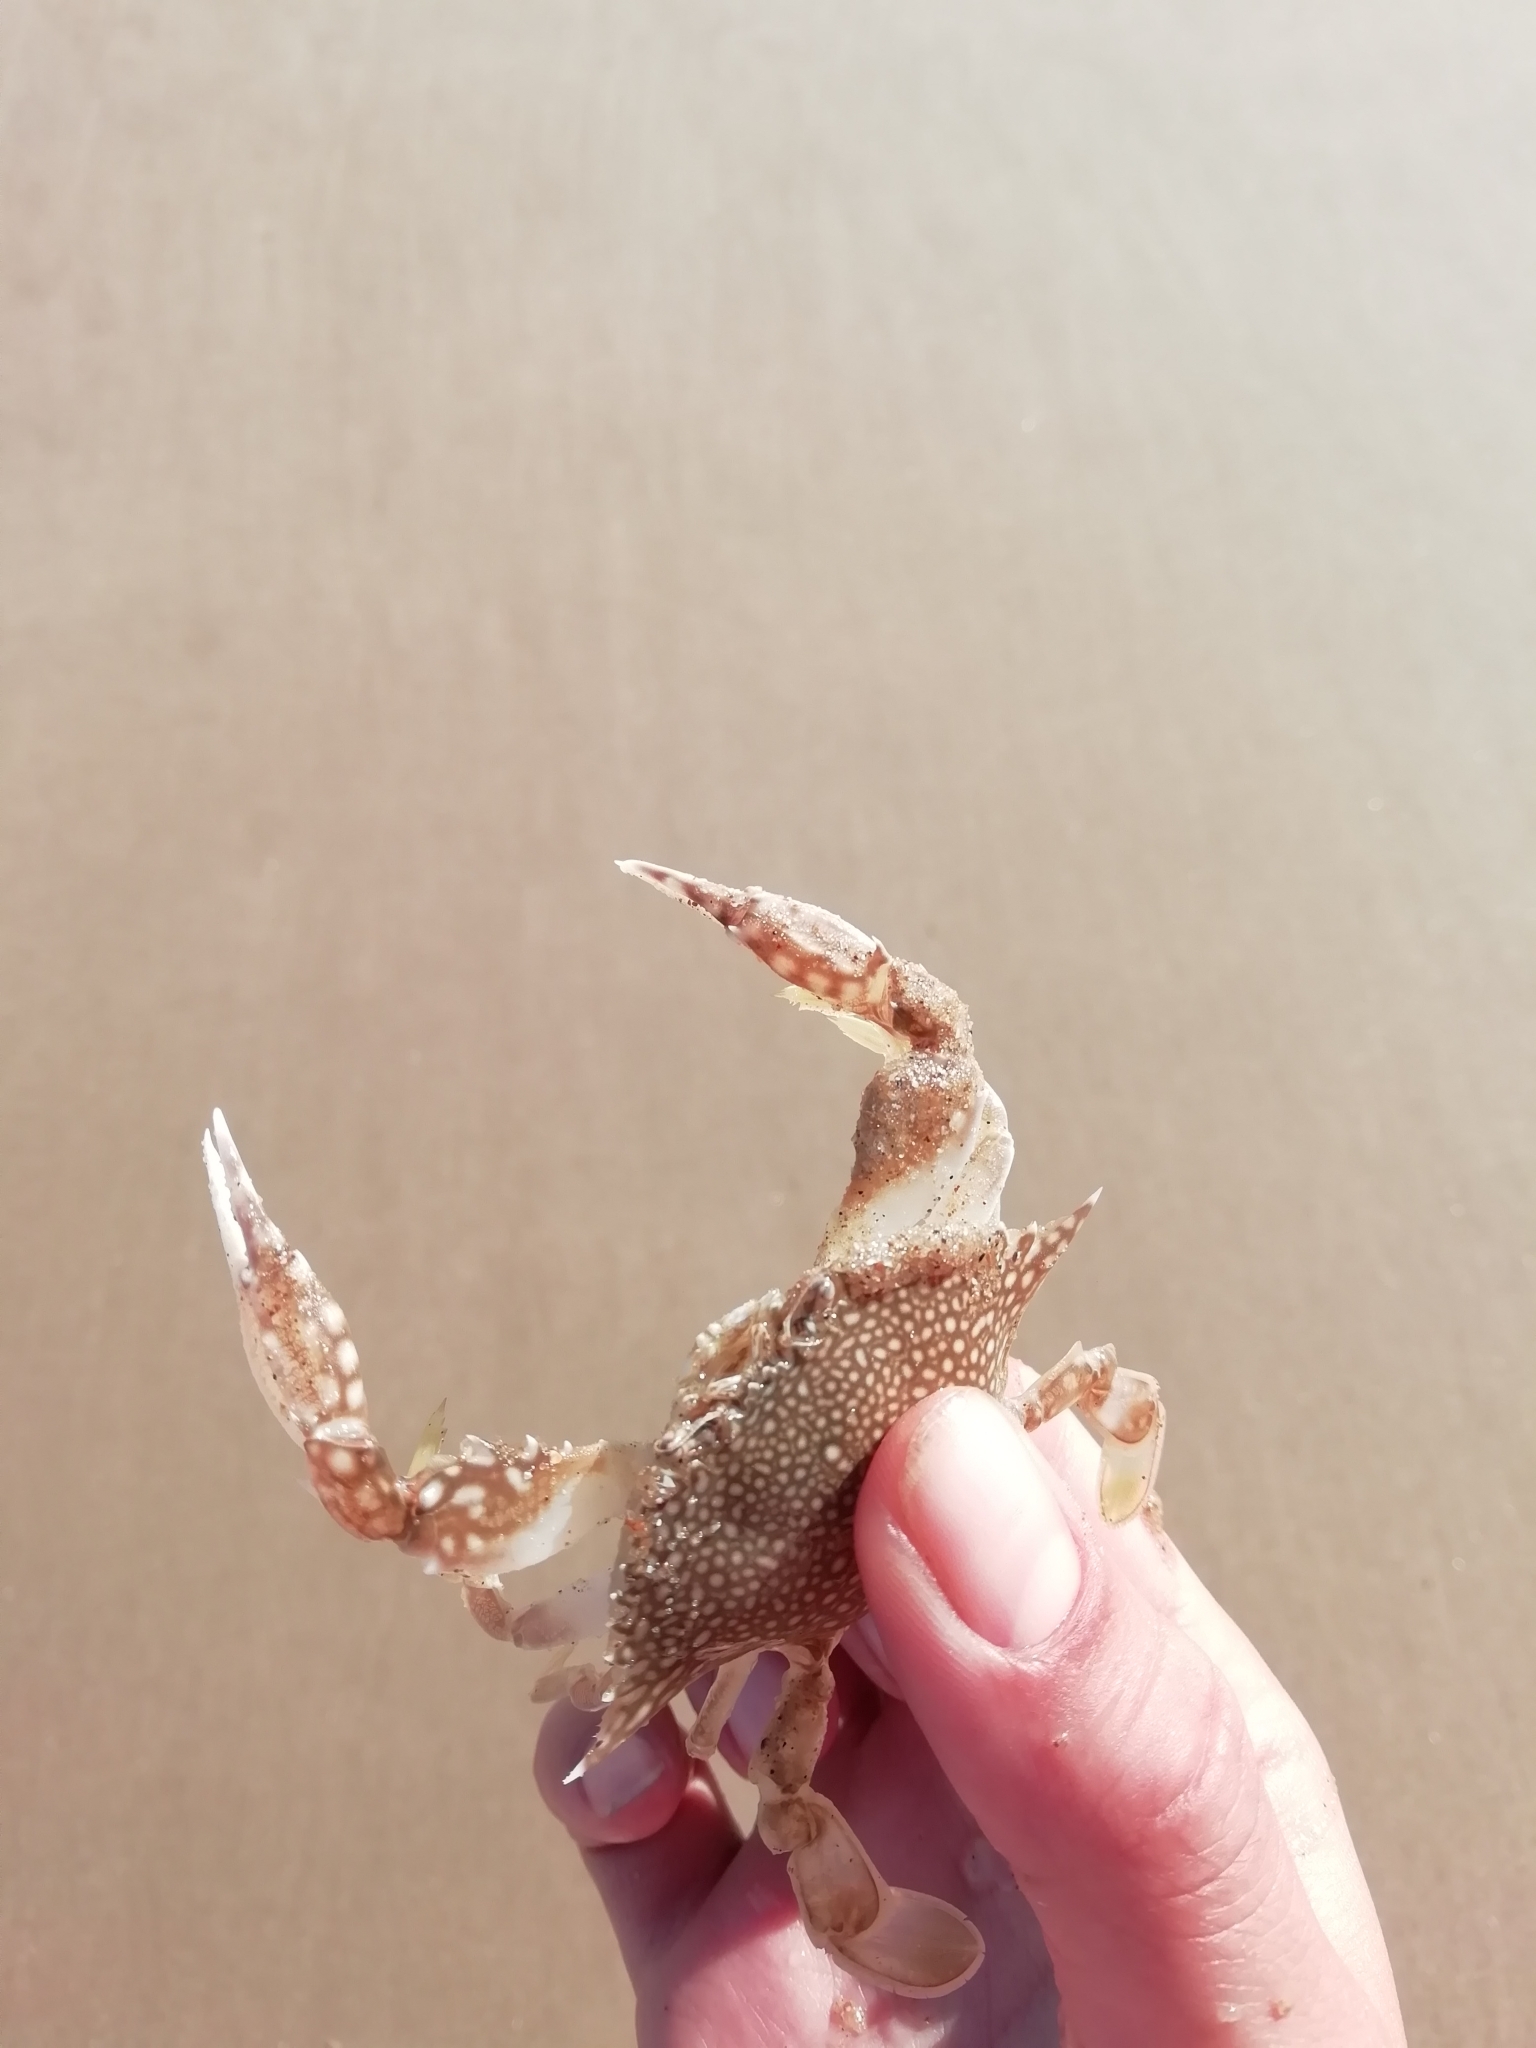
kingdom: Animalia
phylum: Arthropoda
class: Malacostraca
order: Decapoda
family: Portunidae
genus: Arenaeus
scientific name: Arenaeus cribrarius
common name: Speckled crab
